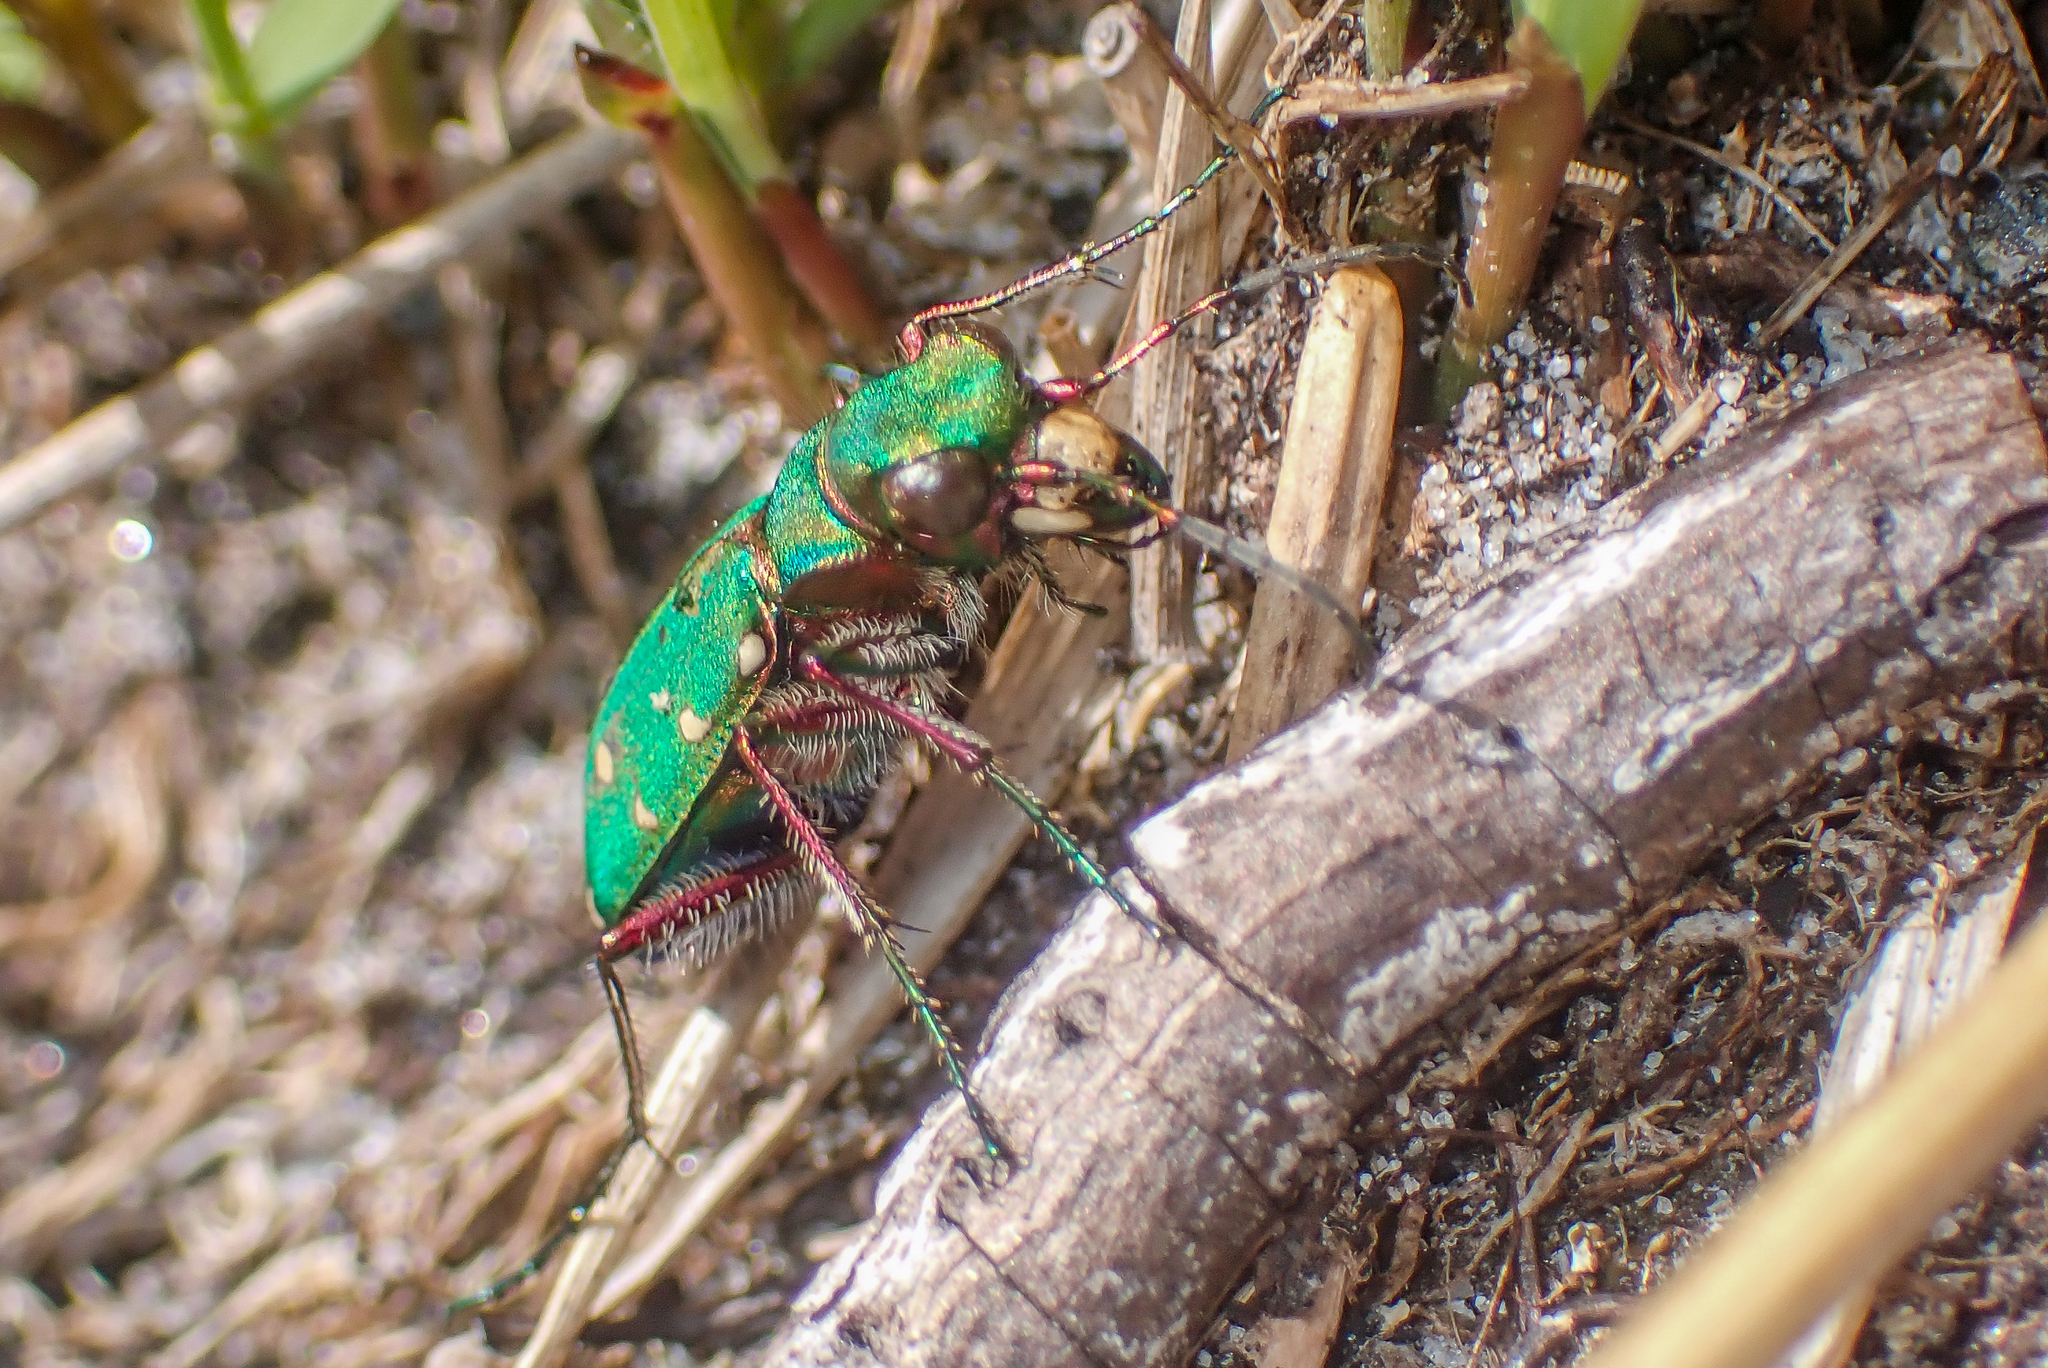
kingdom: Animalia
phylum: Arthropoda
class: Insecta
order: Coleoptera
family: Carabidae
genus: Cicindela
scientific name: Cicindela campestris
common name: Common tiger beetle
